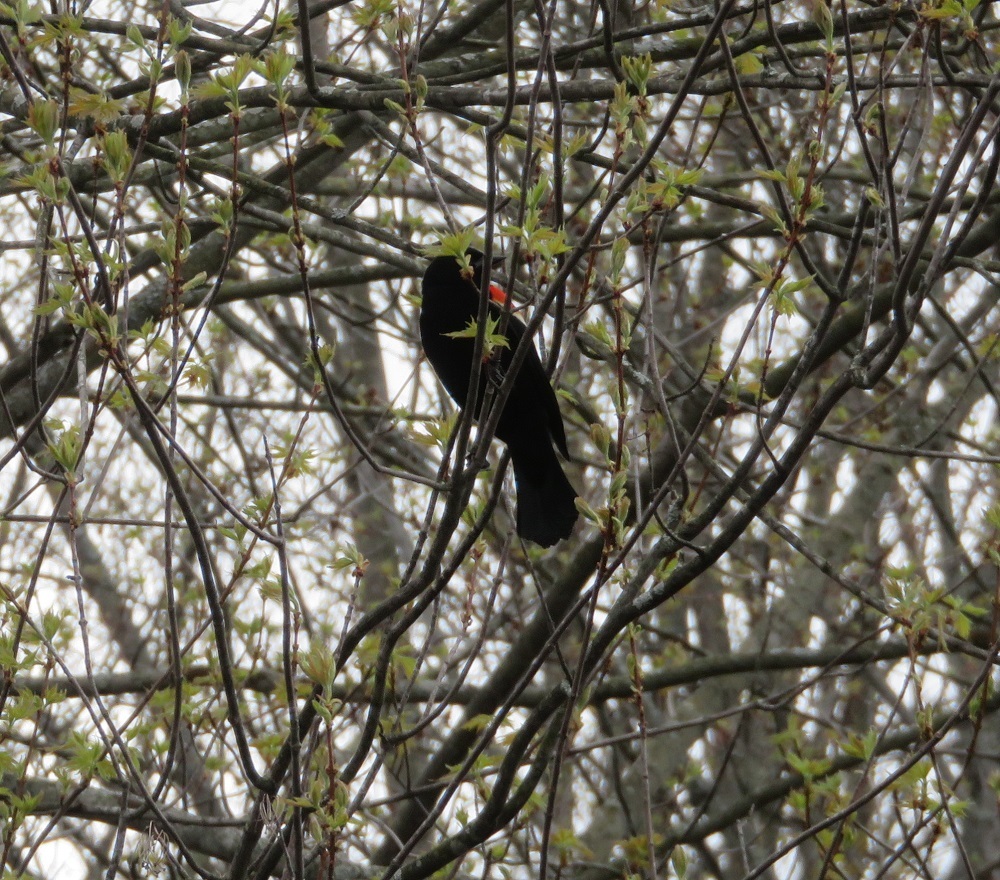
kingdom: Animalia
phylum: Chordata
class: Aves
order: Passeriformes
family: Icteridae
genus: Agelaius
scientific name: Agelaius phoeniceus
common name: Red-winged blackbird
